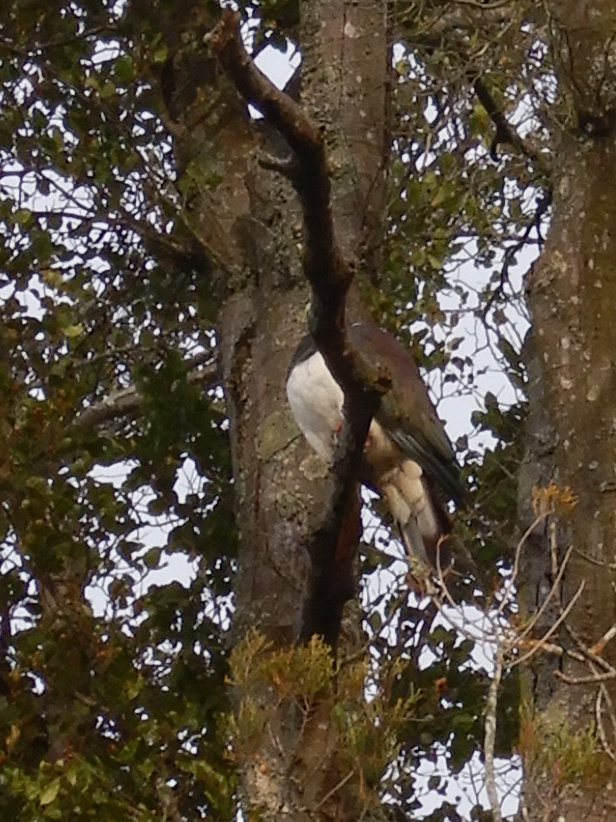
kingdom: Animalia
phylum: Chordata
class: Aves
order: Columbiformes
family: Columbidae
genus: Hemiphaga
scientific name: Hemiphaga novaeseelandiae
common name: New zealand pigeon
